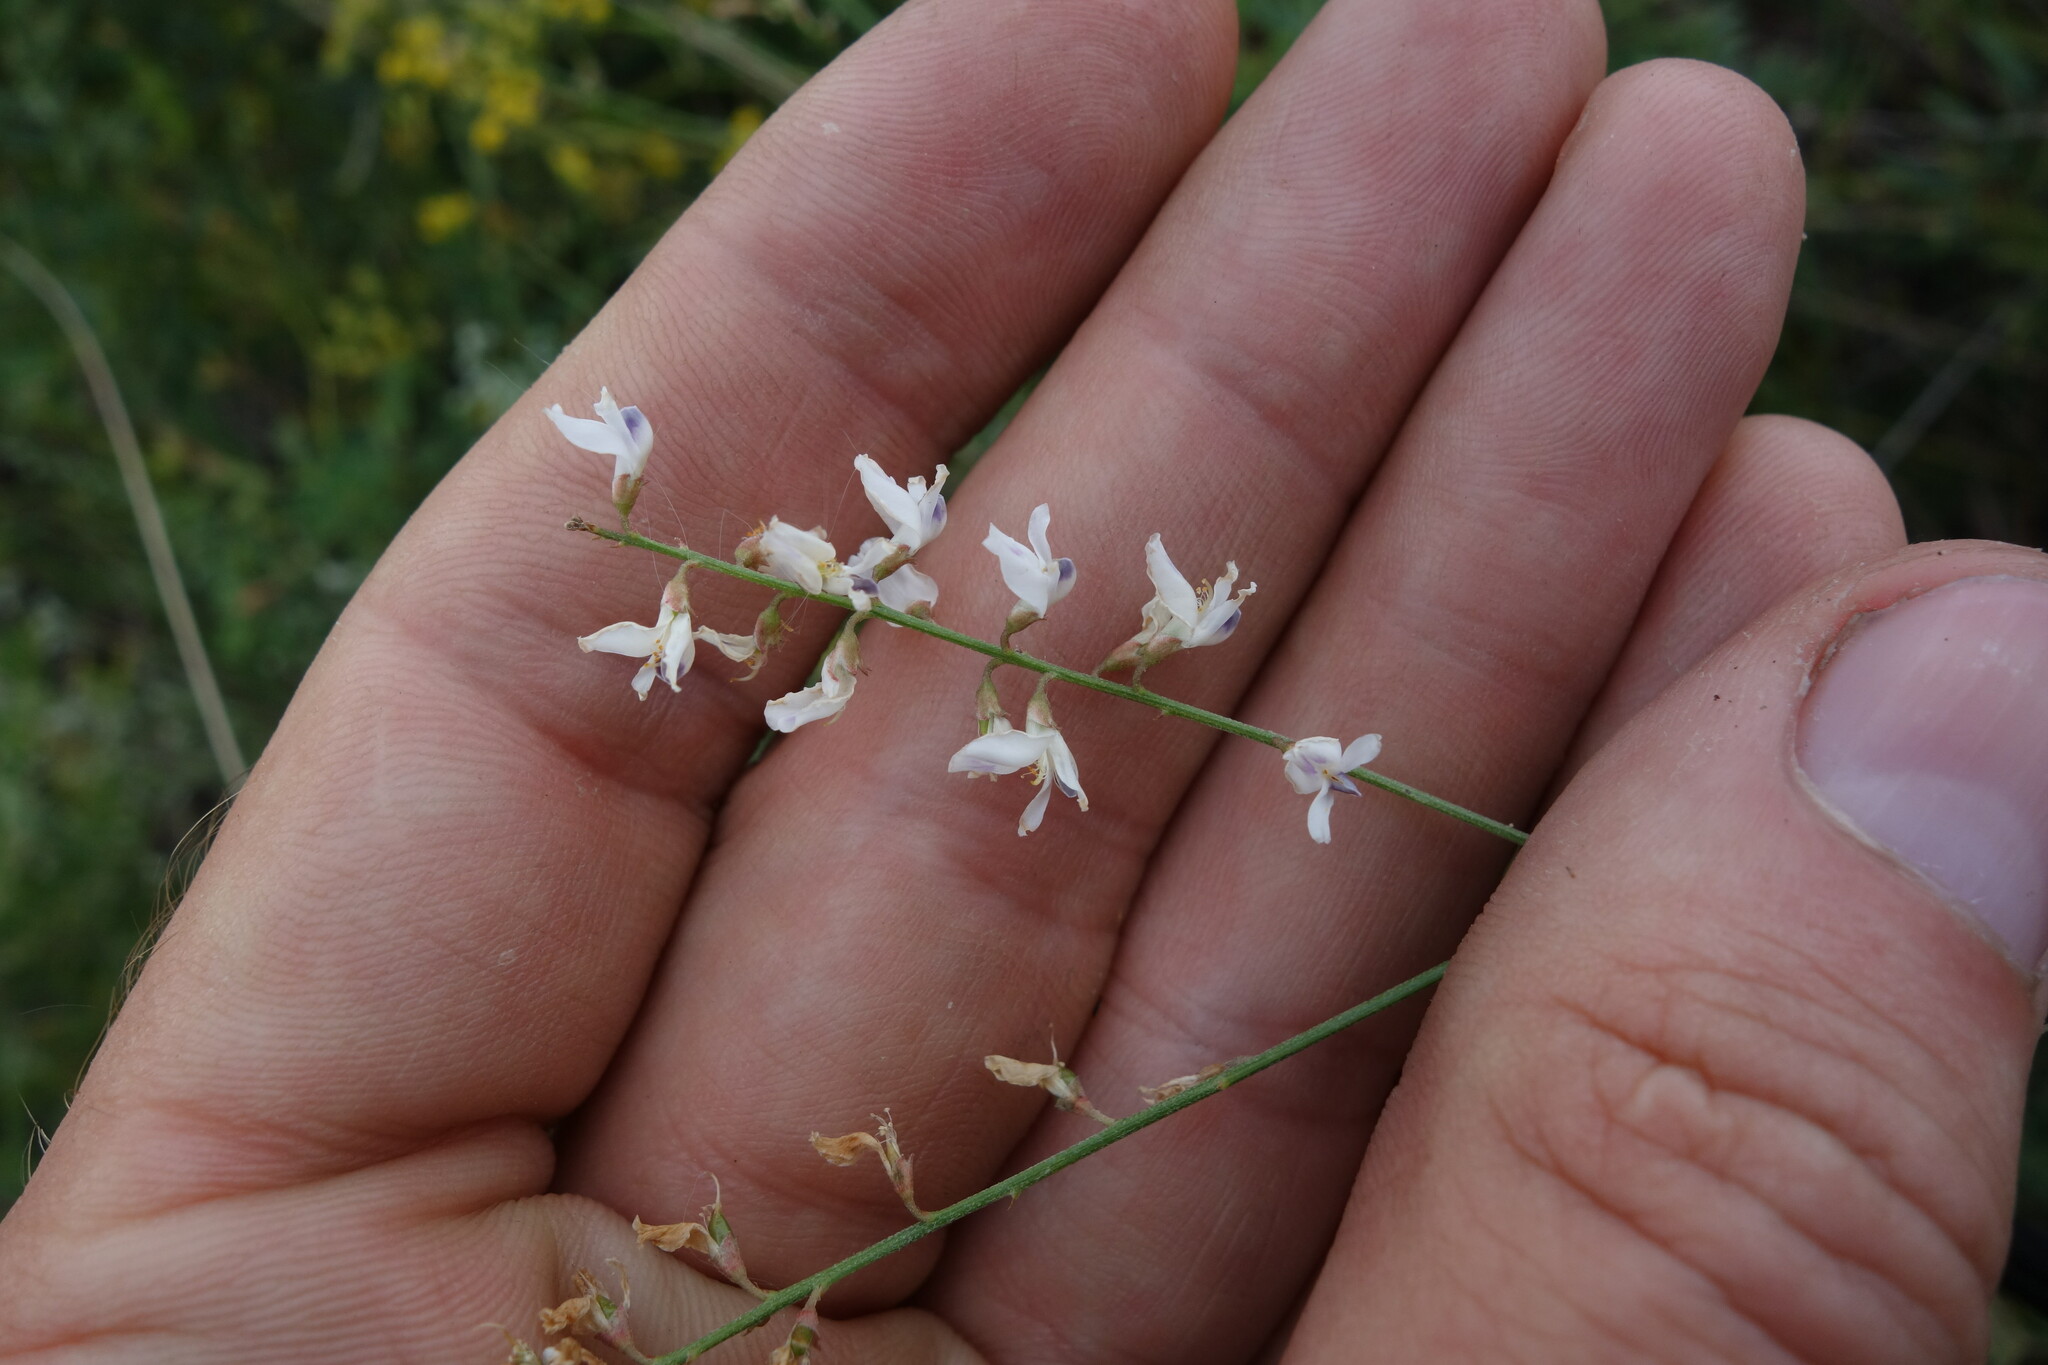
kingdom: Plantae
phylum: Tracheophyta
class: Magnoliopsida
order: Fabales
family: Fabaceae
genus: Astragalus
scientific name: Astragalus melilotoides
